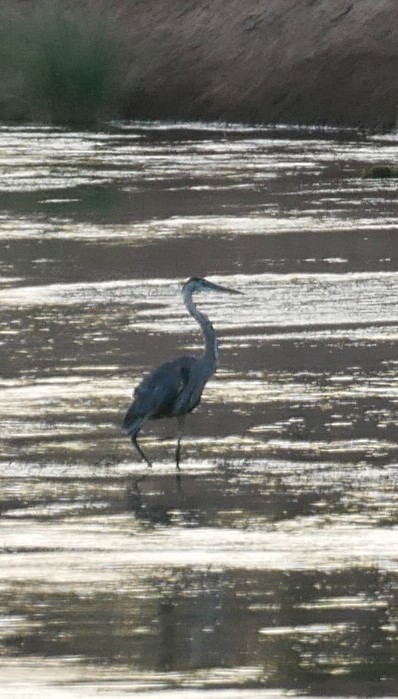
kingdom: Animalia
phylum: Chordata
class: Aves
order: Pelecaniformes
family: Ardeidae
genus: Ardea
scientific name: Ardea herodias
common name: Great blue heron
